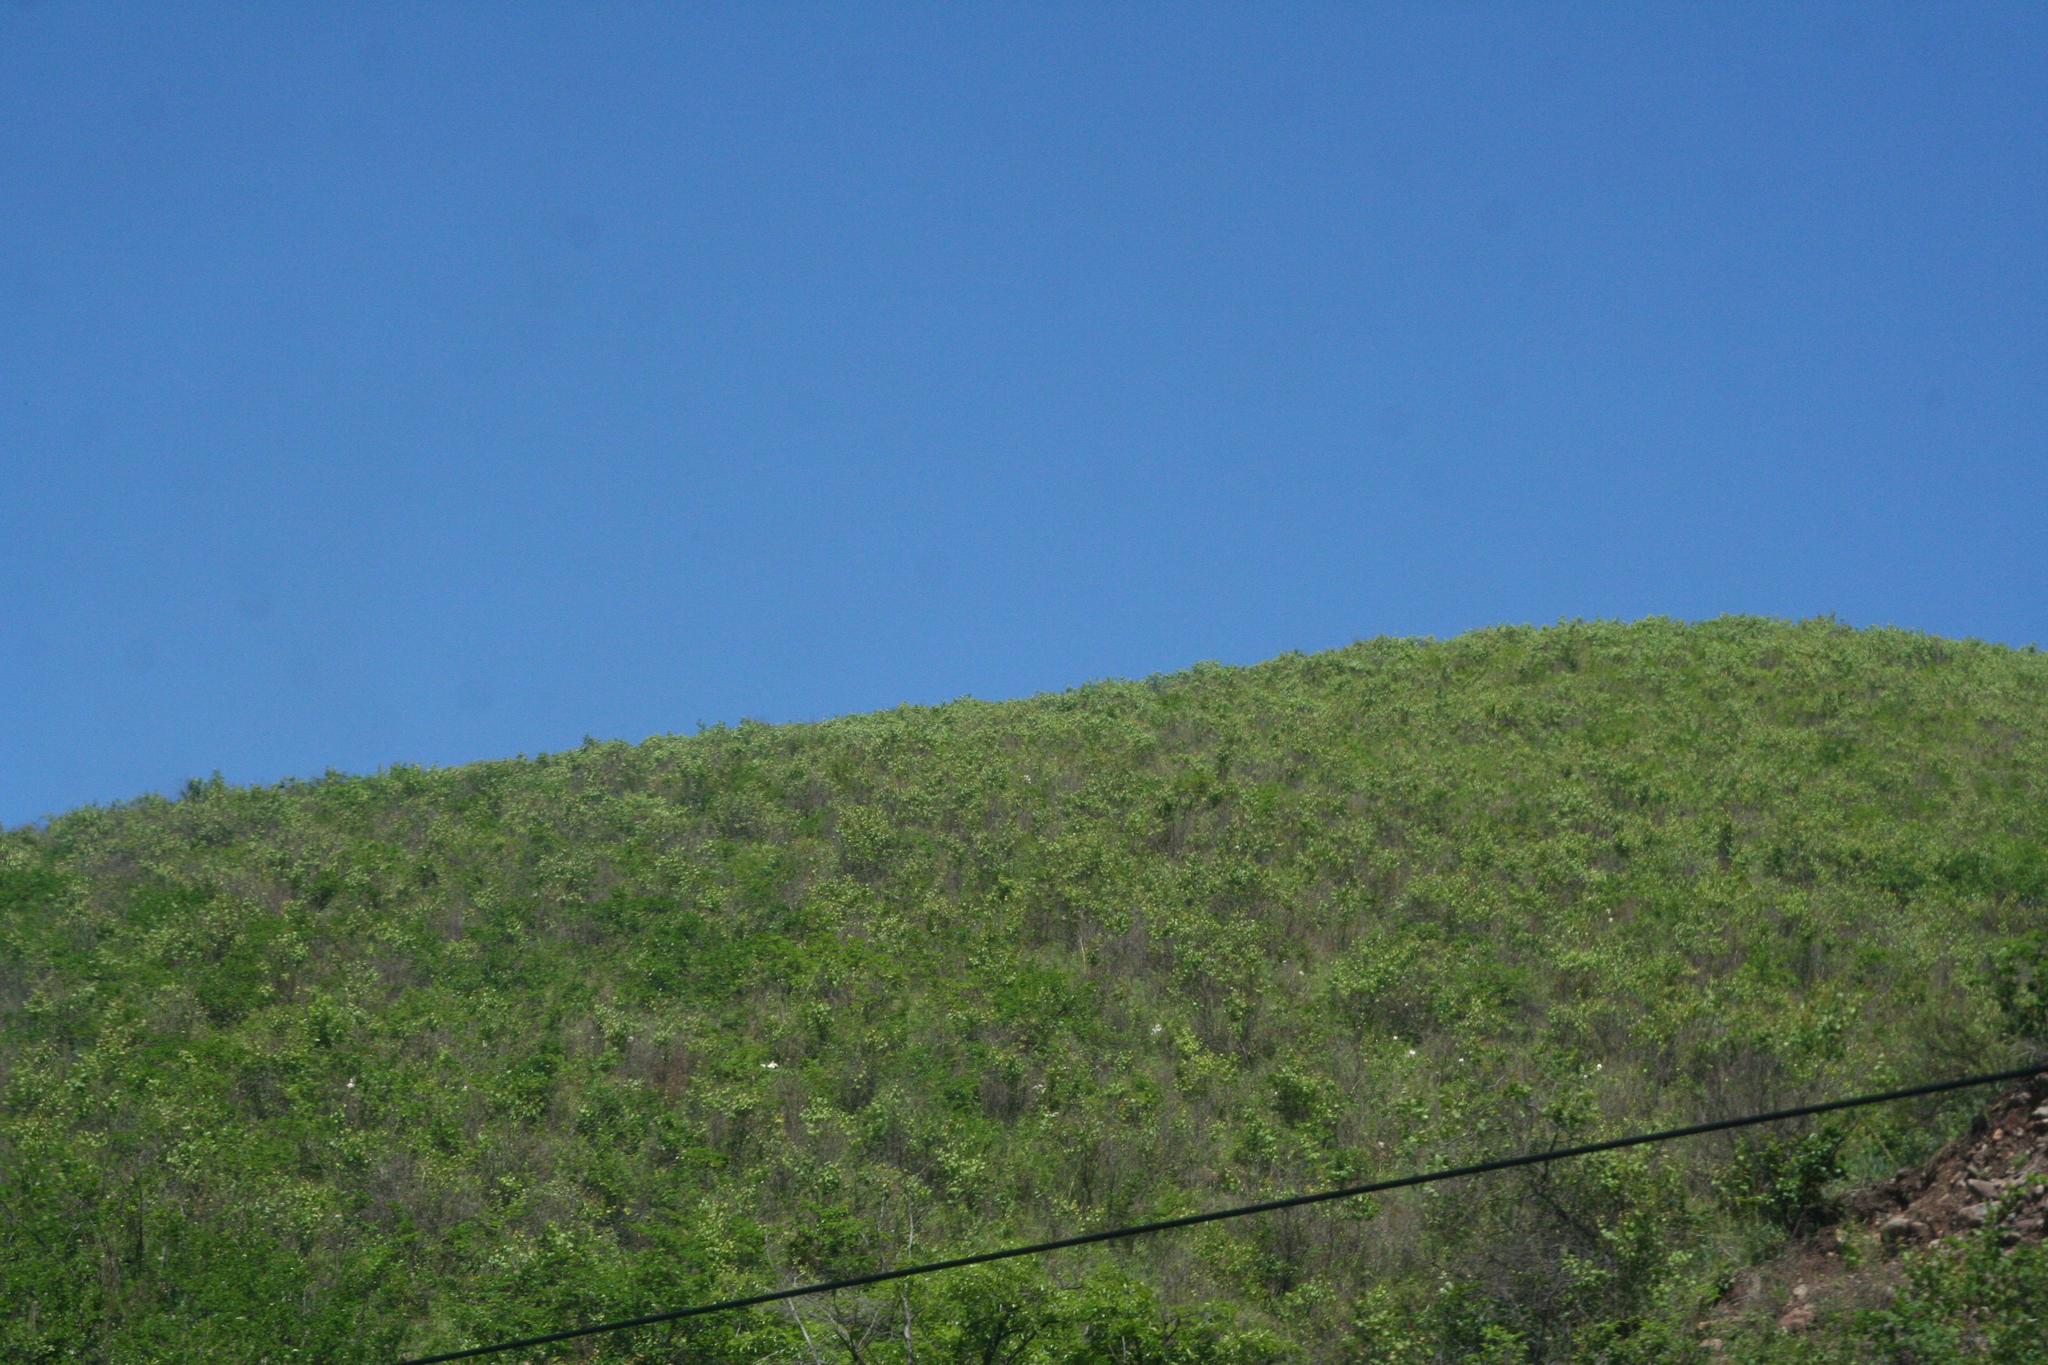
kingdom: Plantae
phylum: Tracheophyta
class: Magnoliopsida
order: Rosales
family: Rosaceae
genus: Prunus
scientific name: Prunus sibirica
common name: Siberian apricot
